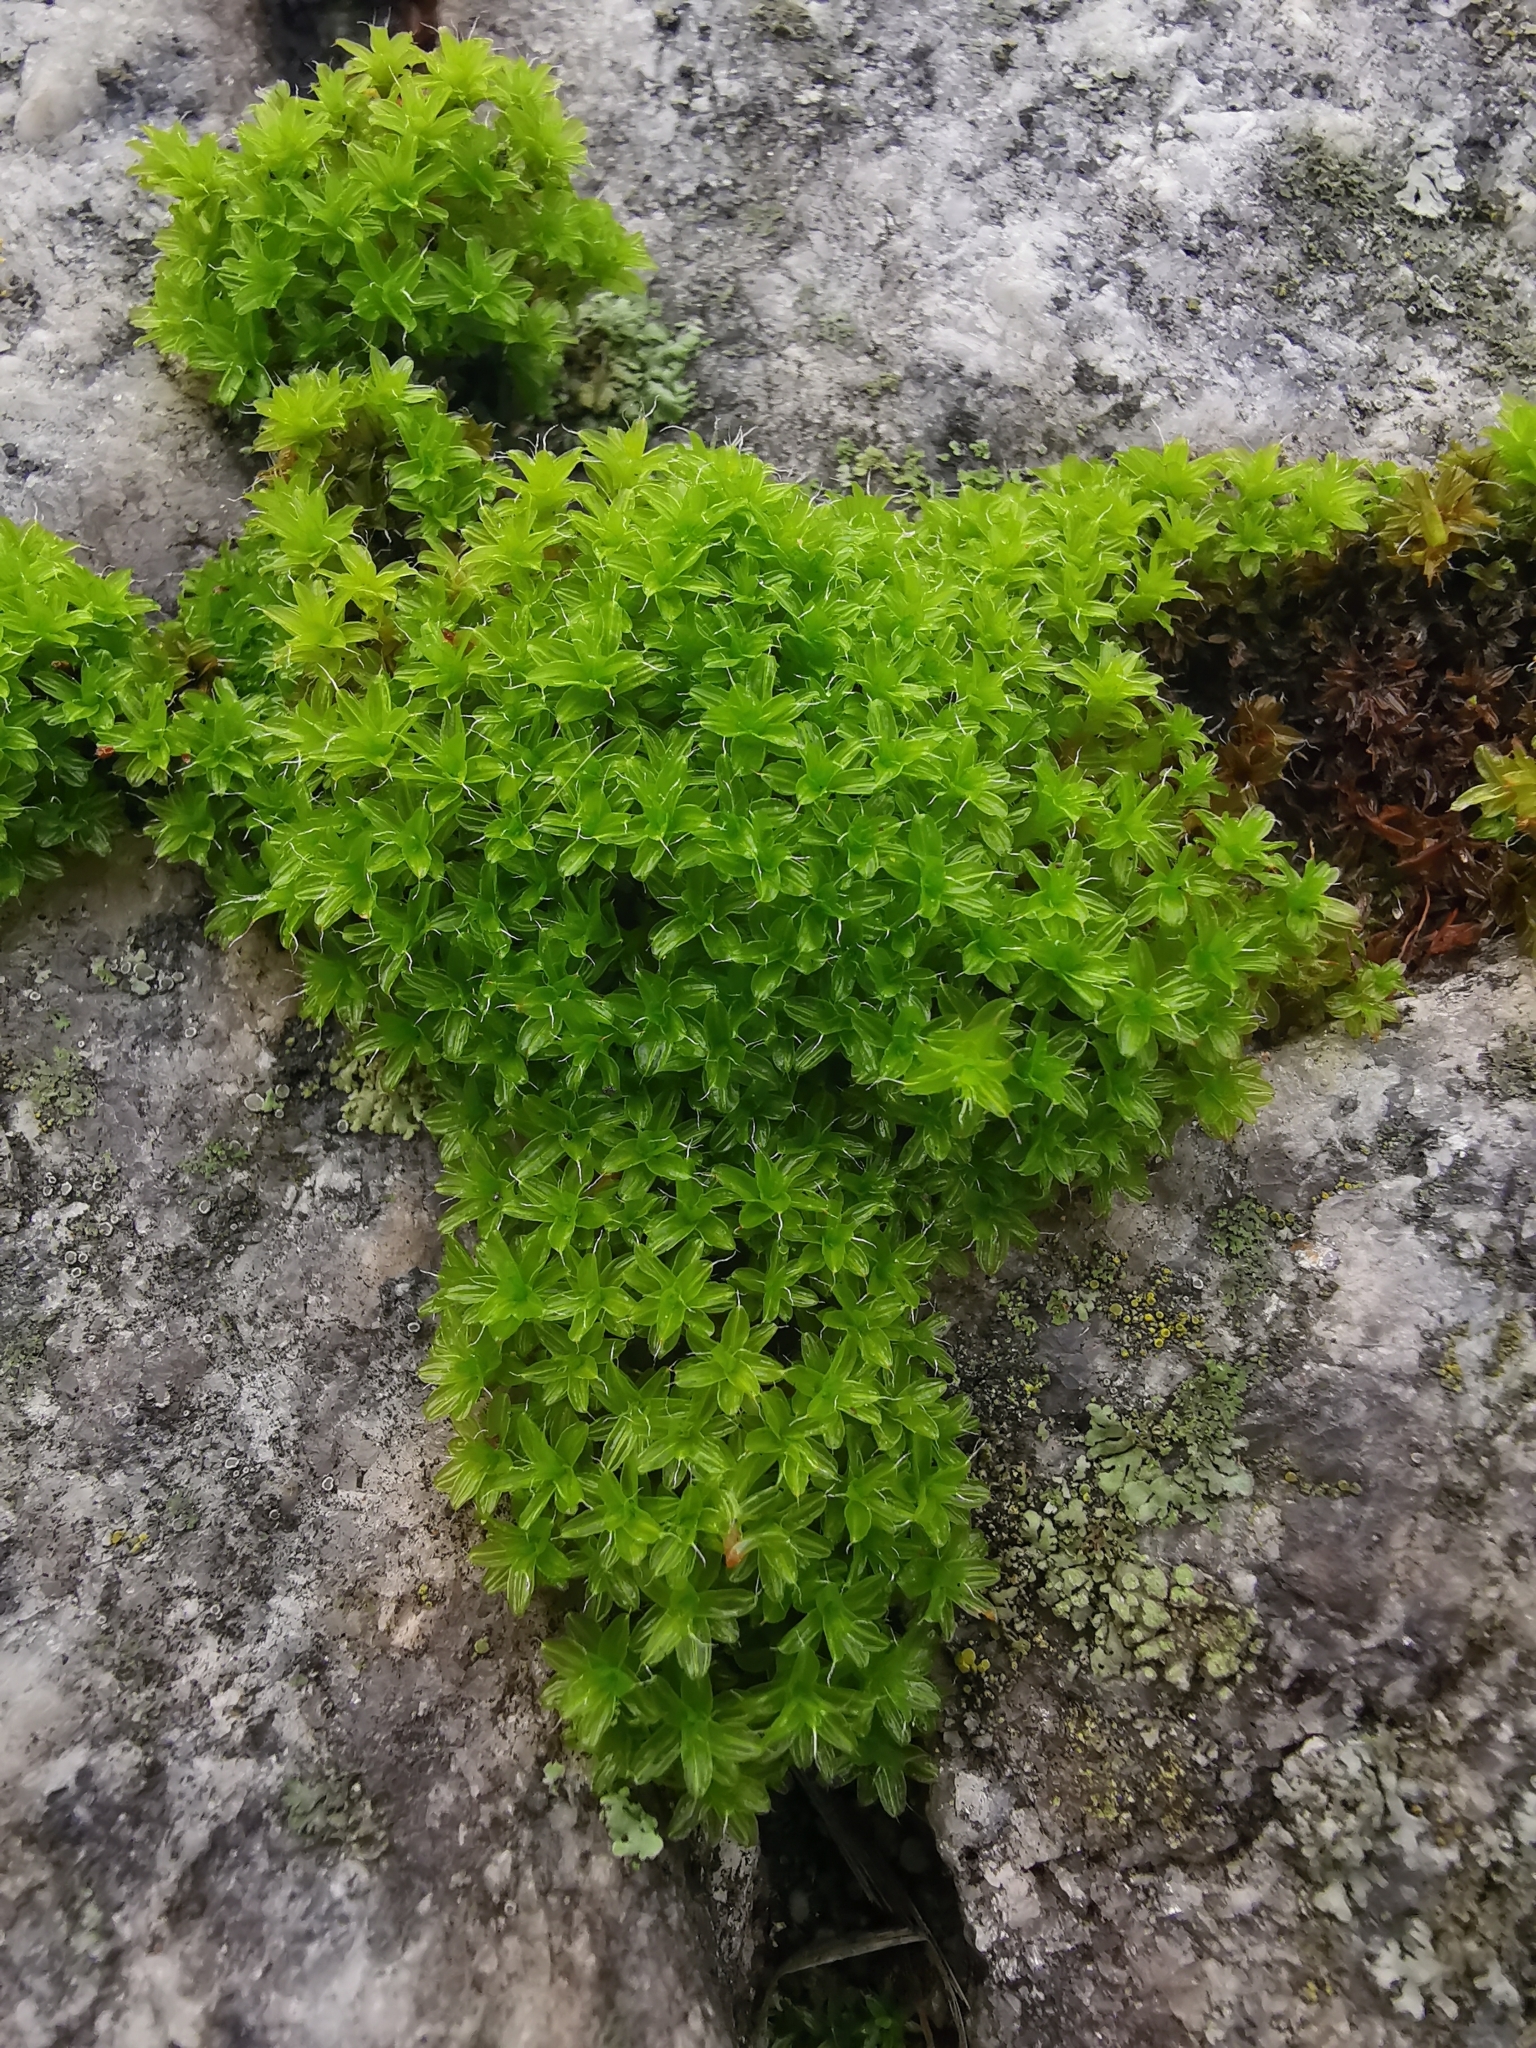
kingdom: Plantae
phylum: Bryophyta
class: Bryopsida
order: Pottiales
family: Pottiaceae
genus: Syntrichia
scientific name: Syntrichia ruralis
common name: Sidewalk screw moss
